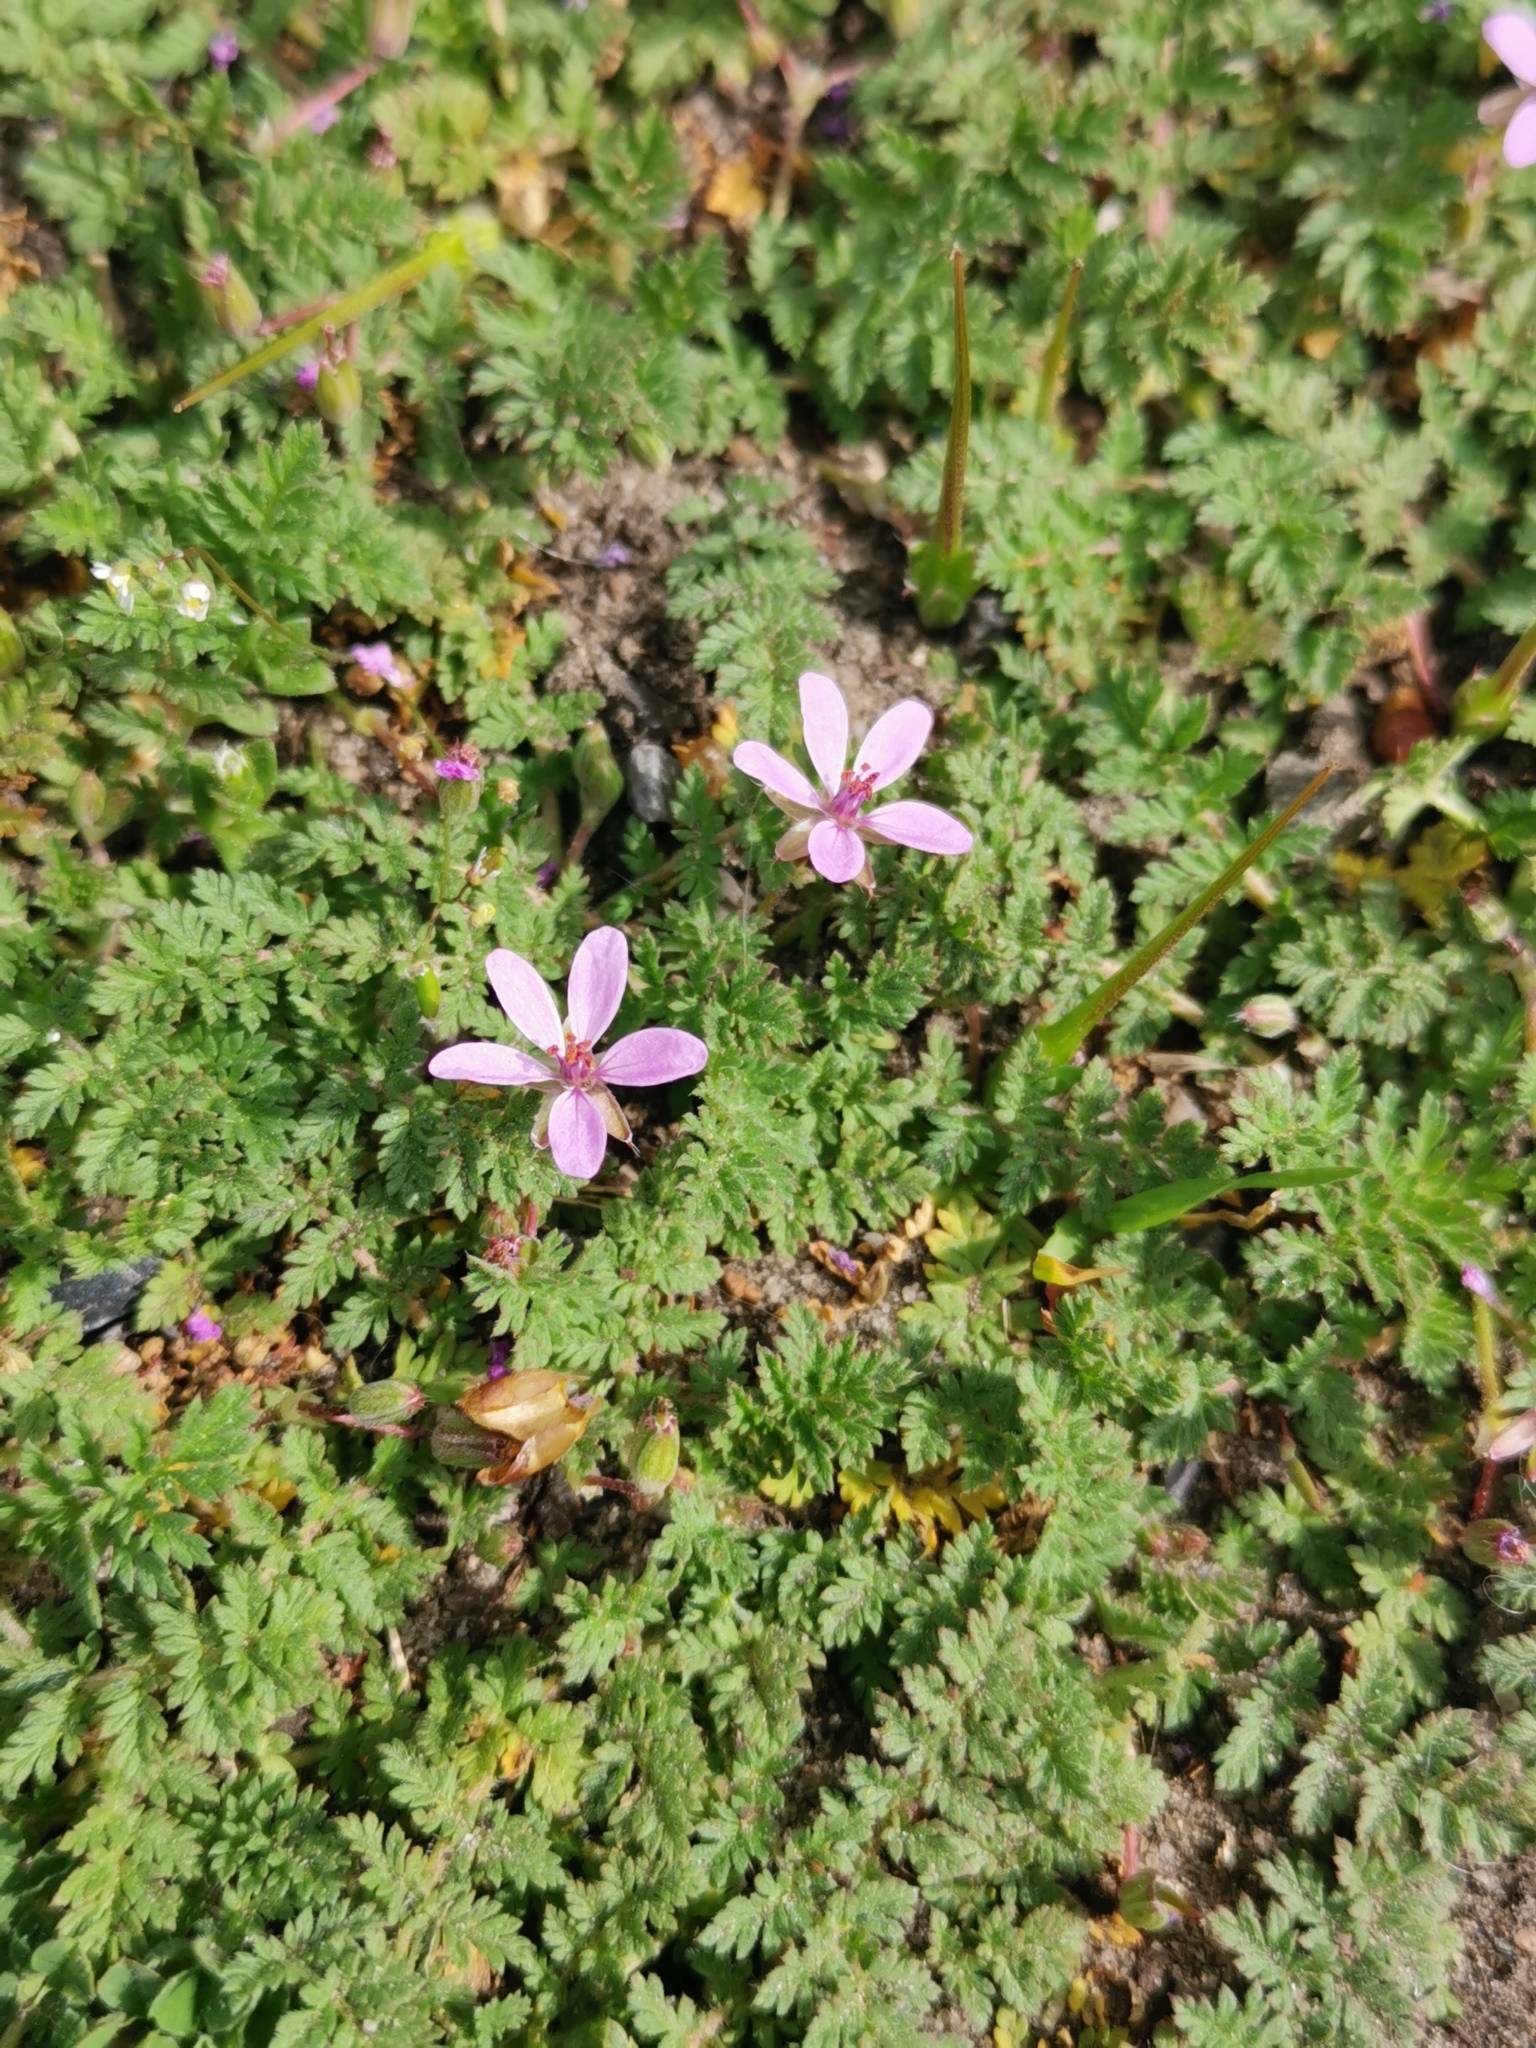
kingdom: Plantae
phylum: Tracheophyta
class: Magnoliopsida
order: Geraniales
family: Geraniaceae
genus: Erodium
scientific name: Erodium cicutarium
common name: Common stork's-bill
